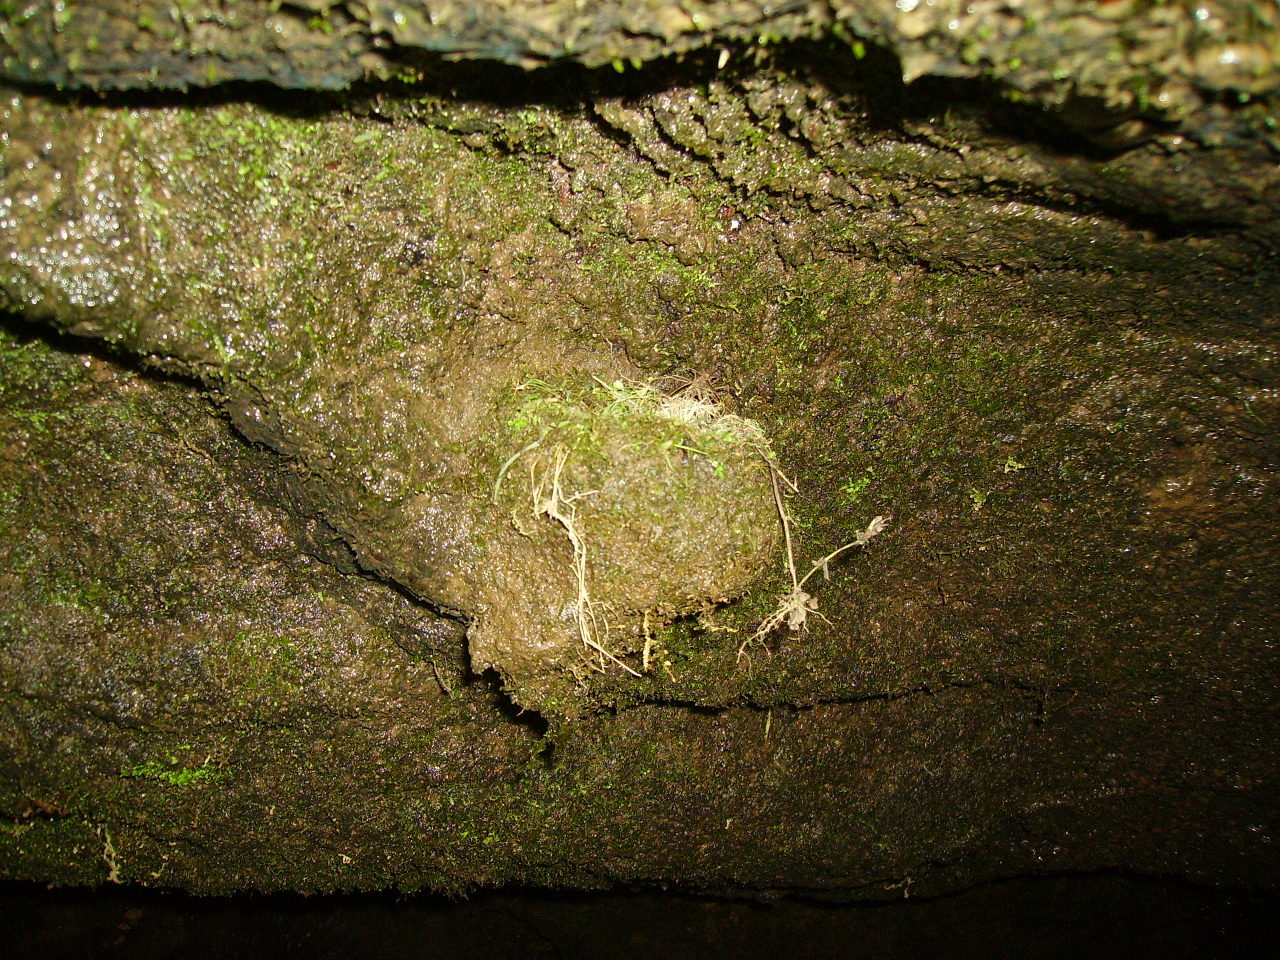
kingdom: Animalia
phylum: Chordata
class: Aves
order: Apodiformes
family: Apodidae
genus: Streptoprocne
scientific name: Streptoprocne zonaris
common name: White-collared swift
